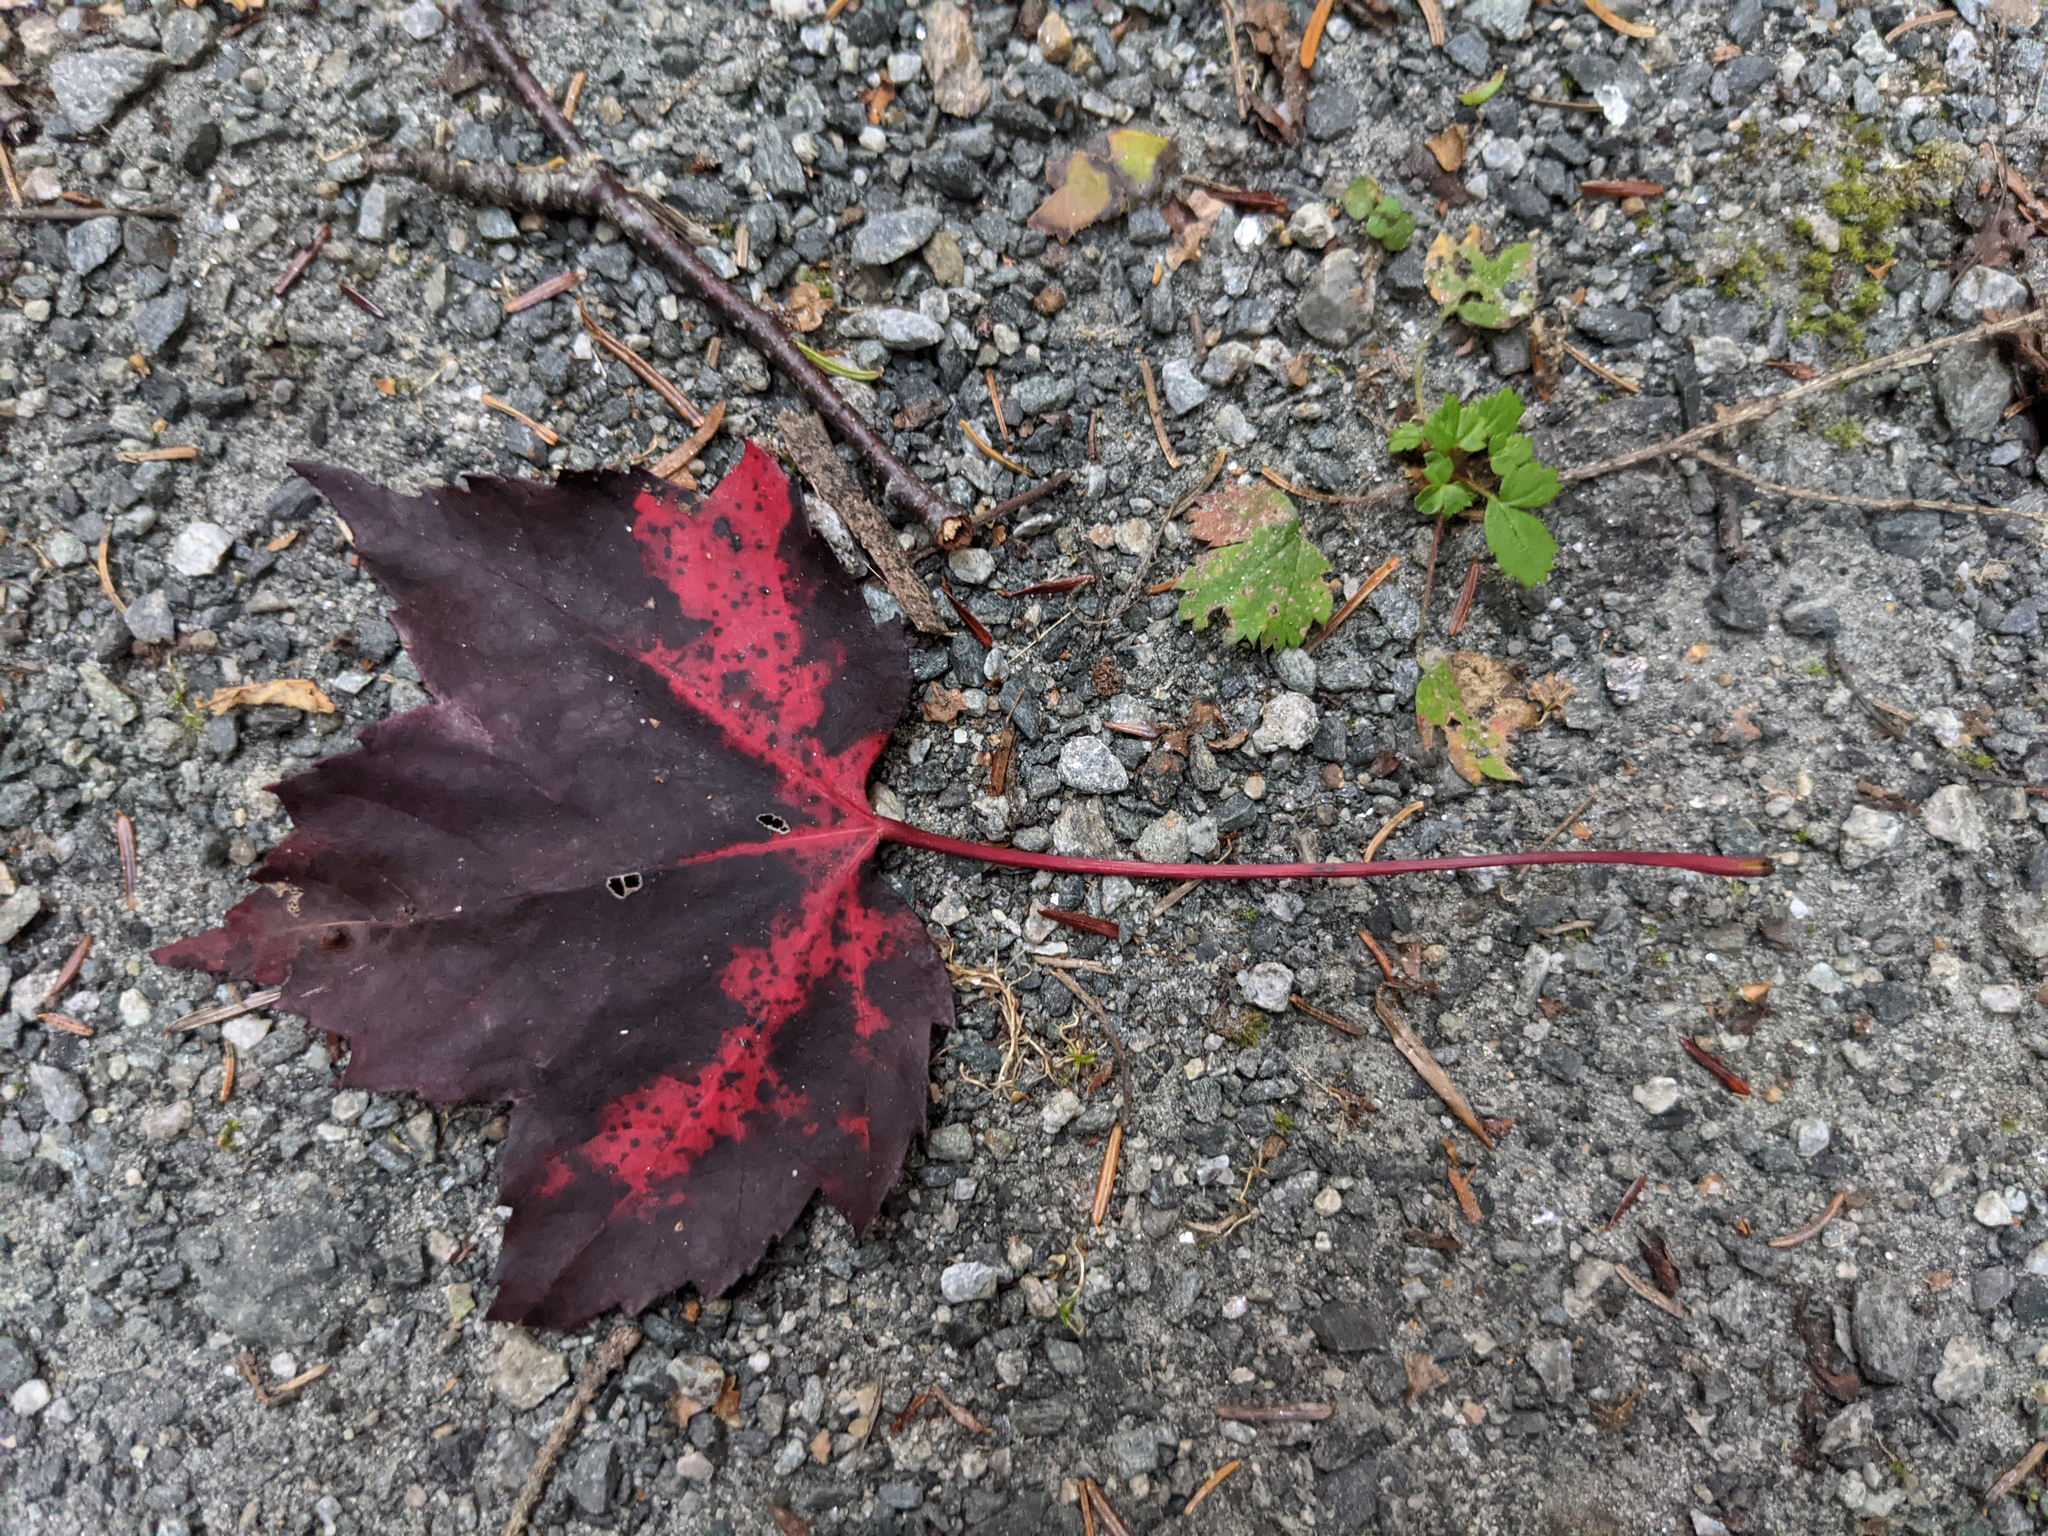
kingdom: Plantae
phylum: Tracheophyta
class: Magnoliopsida
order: Sapindales
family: Sapindaceae
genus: Acer
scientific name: Acer rubrum
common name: Red maple
